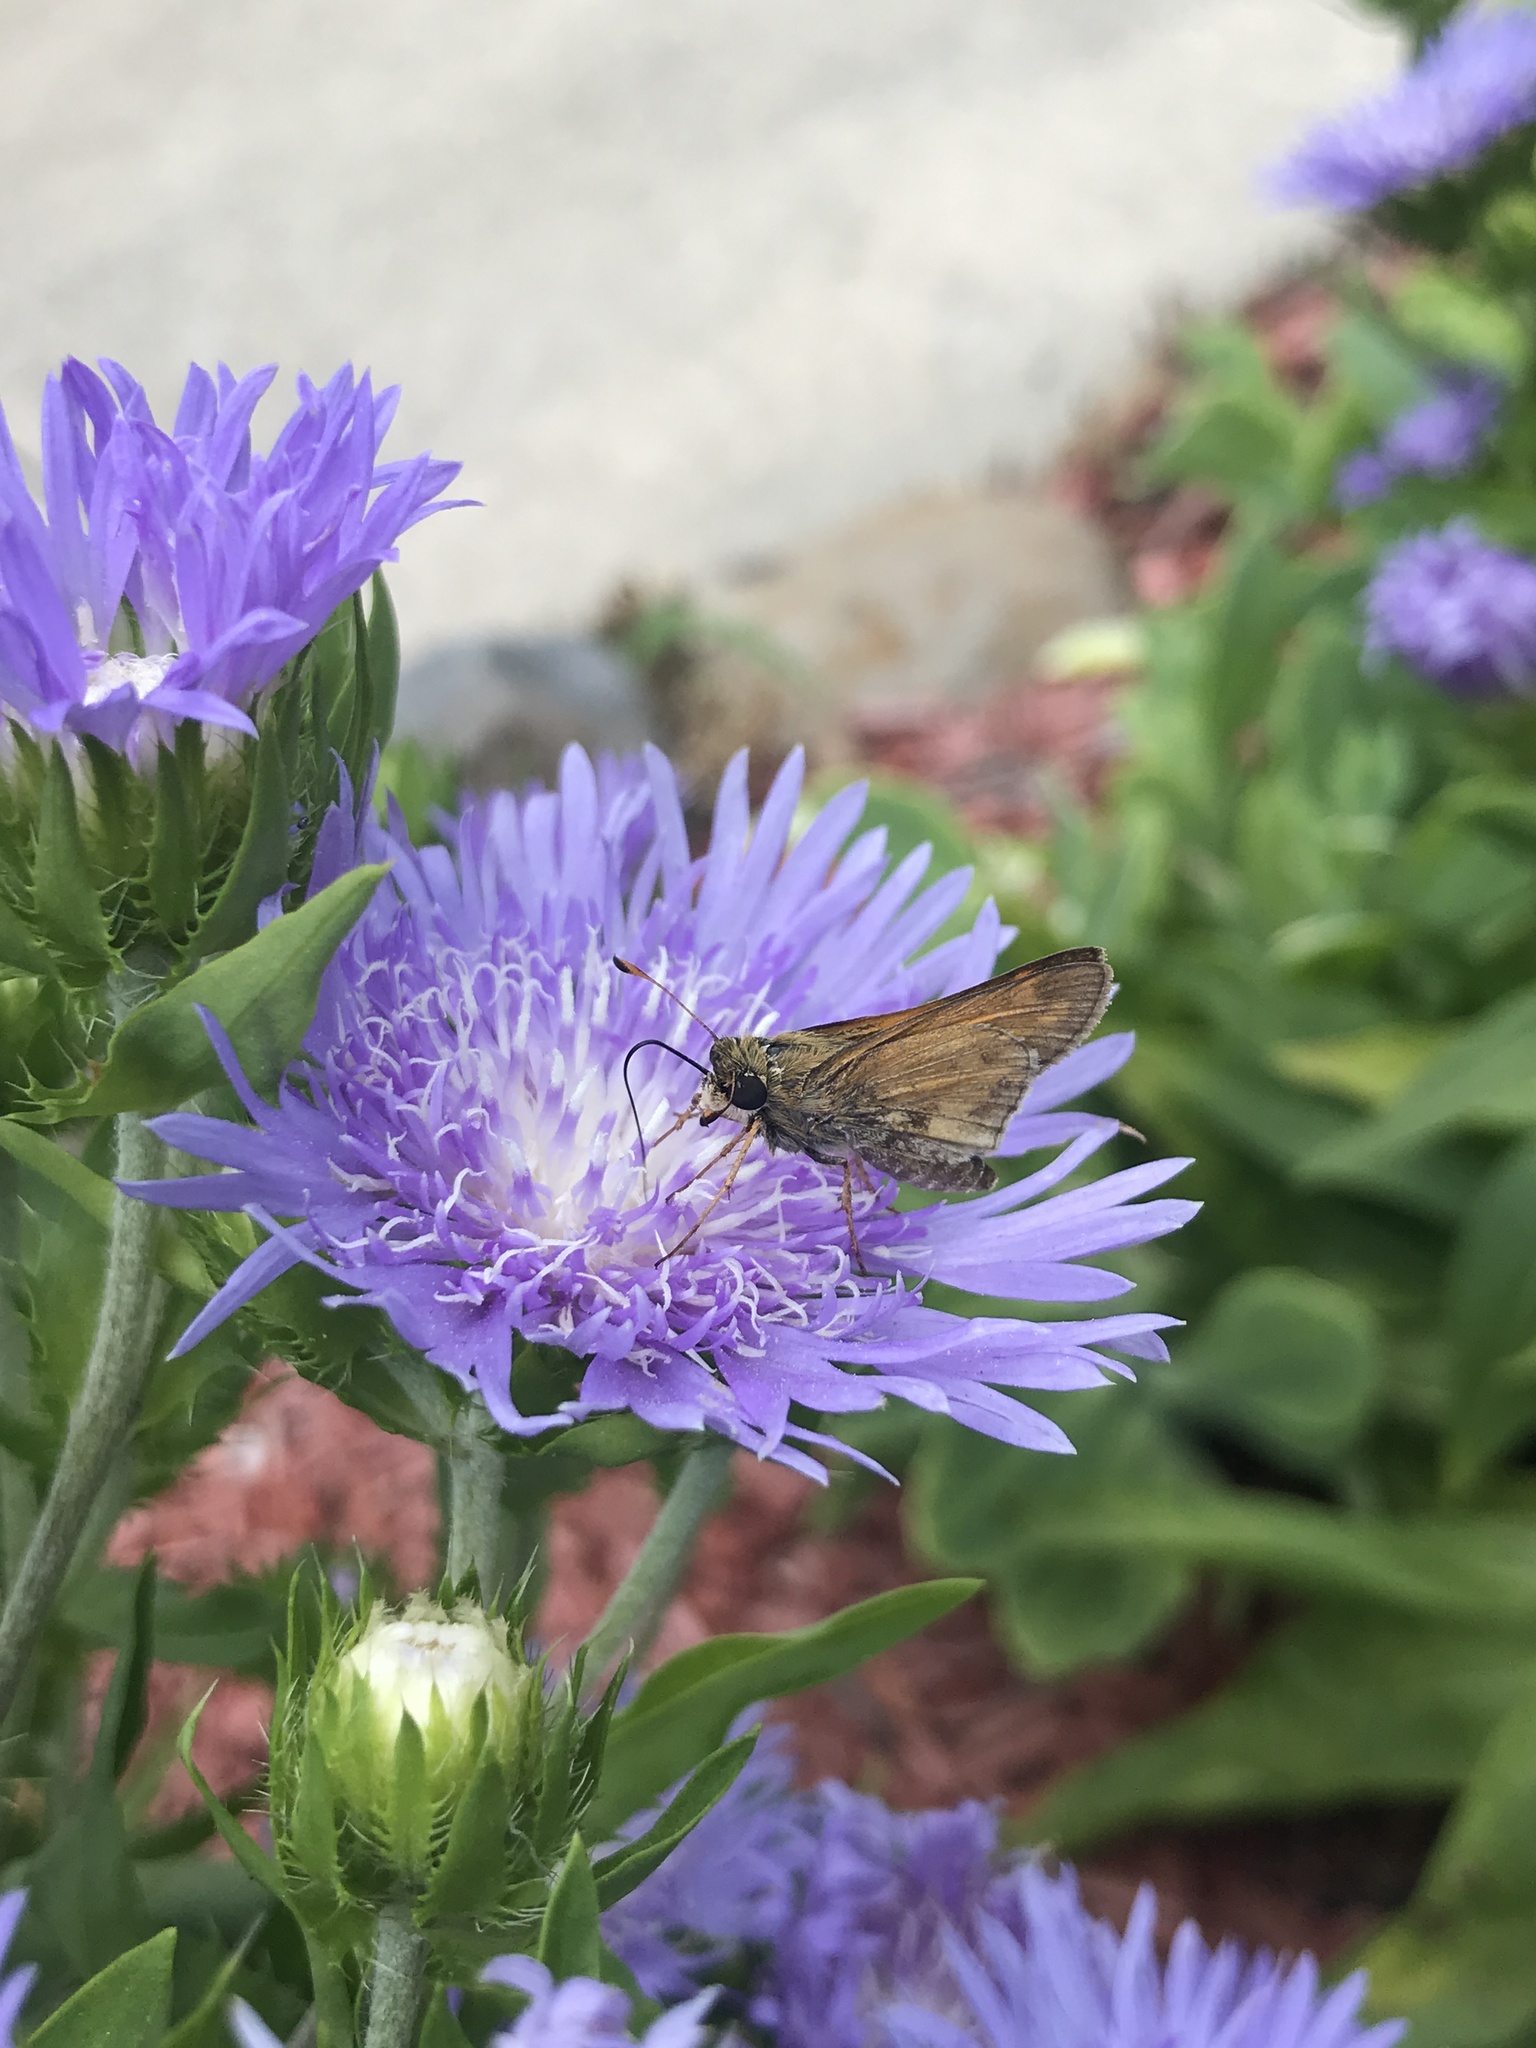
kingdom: Animalia
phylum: Arthropoda
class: Insecta
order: Lepidoptera
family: Hesperiidae
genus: Atalopedes
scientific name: Atalopedes
